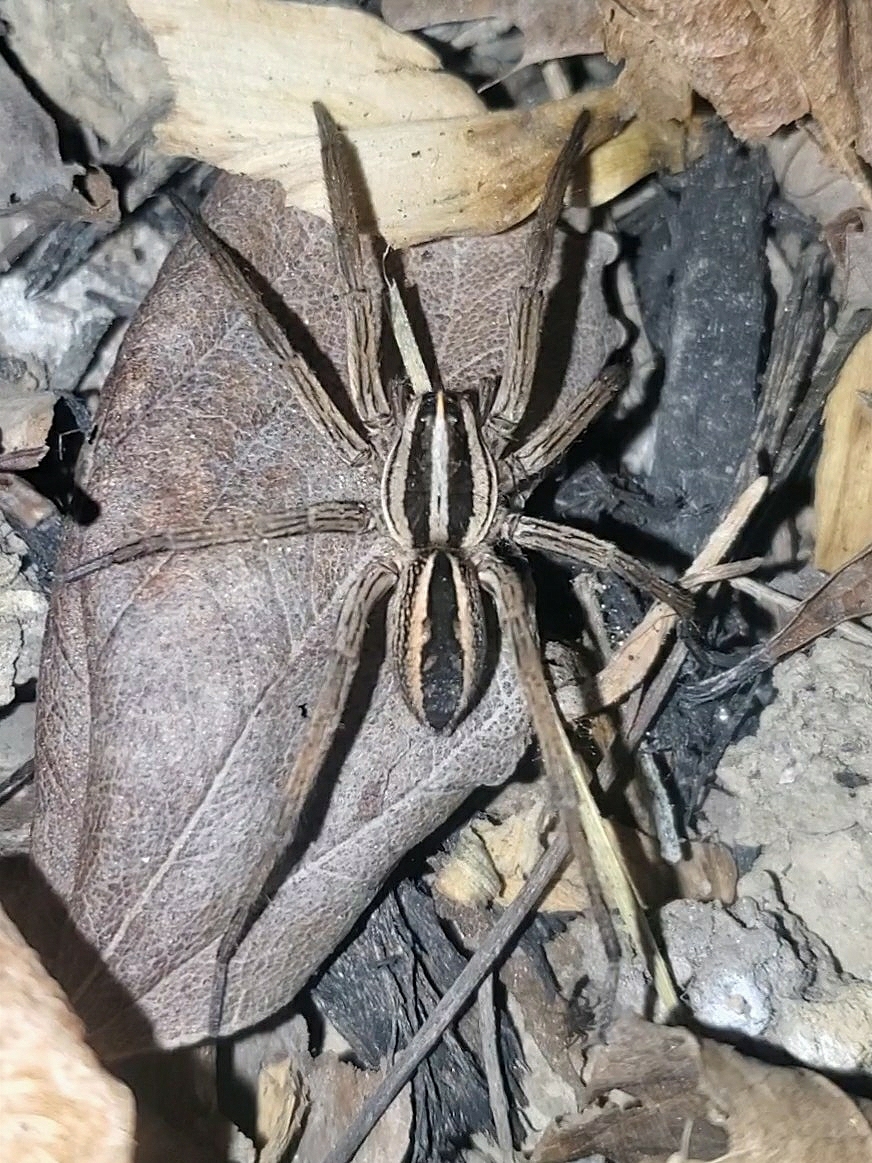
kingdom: Animalia
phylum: Arthropoda
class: Arachnida
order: Araneae
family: Lycosidae
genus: Rabidosa
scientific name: Rabidosa rabida
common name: Rabid wolf spider
